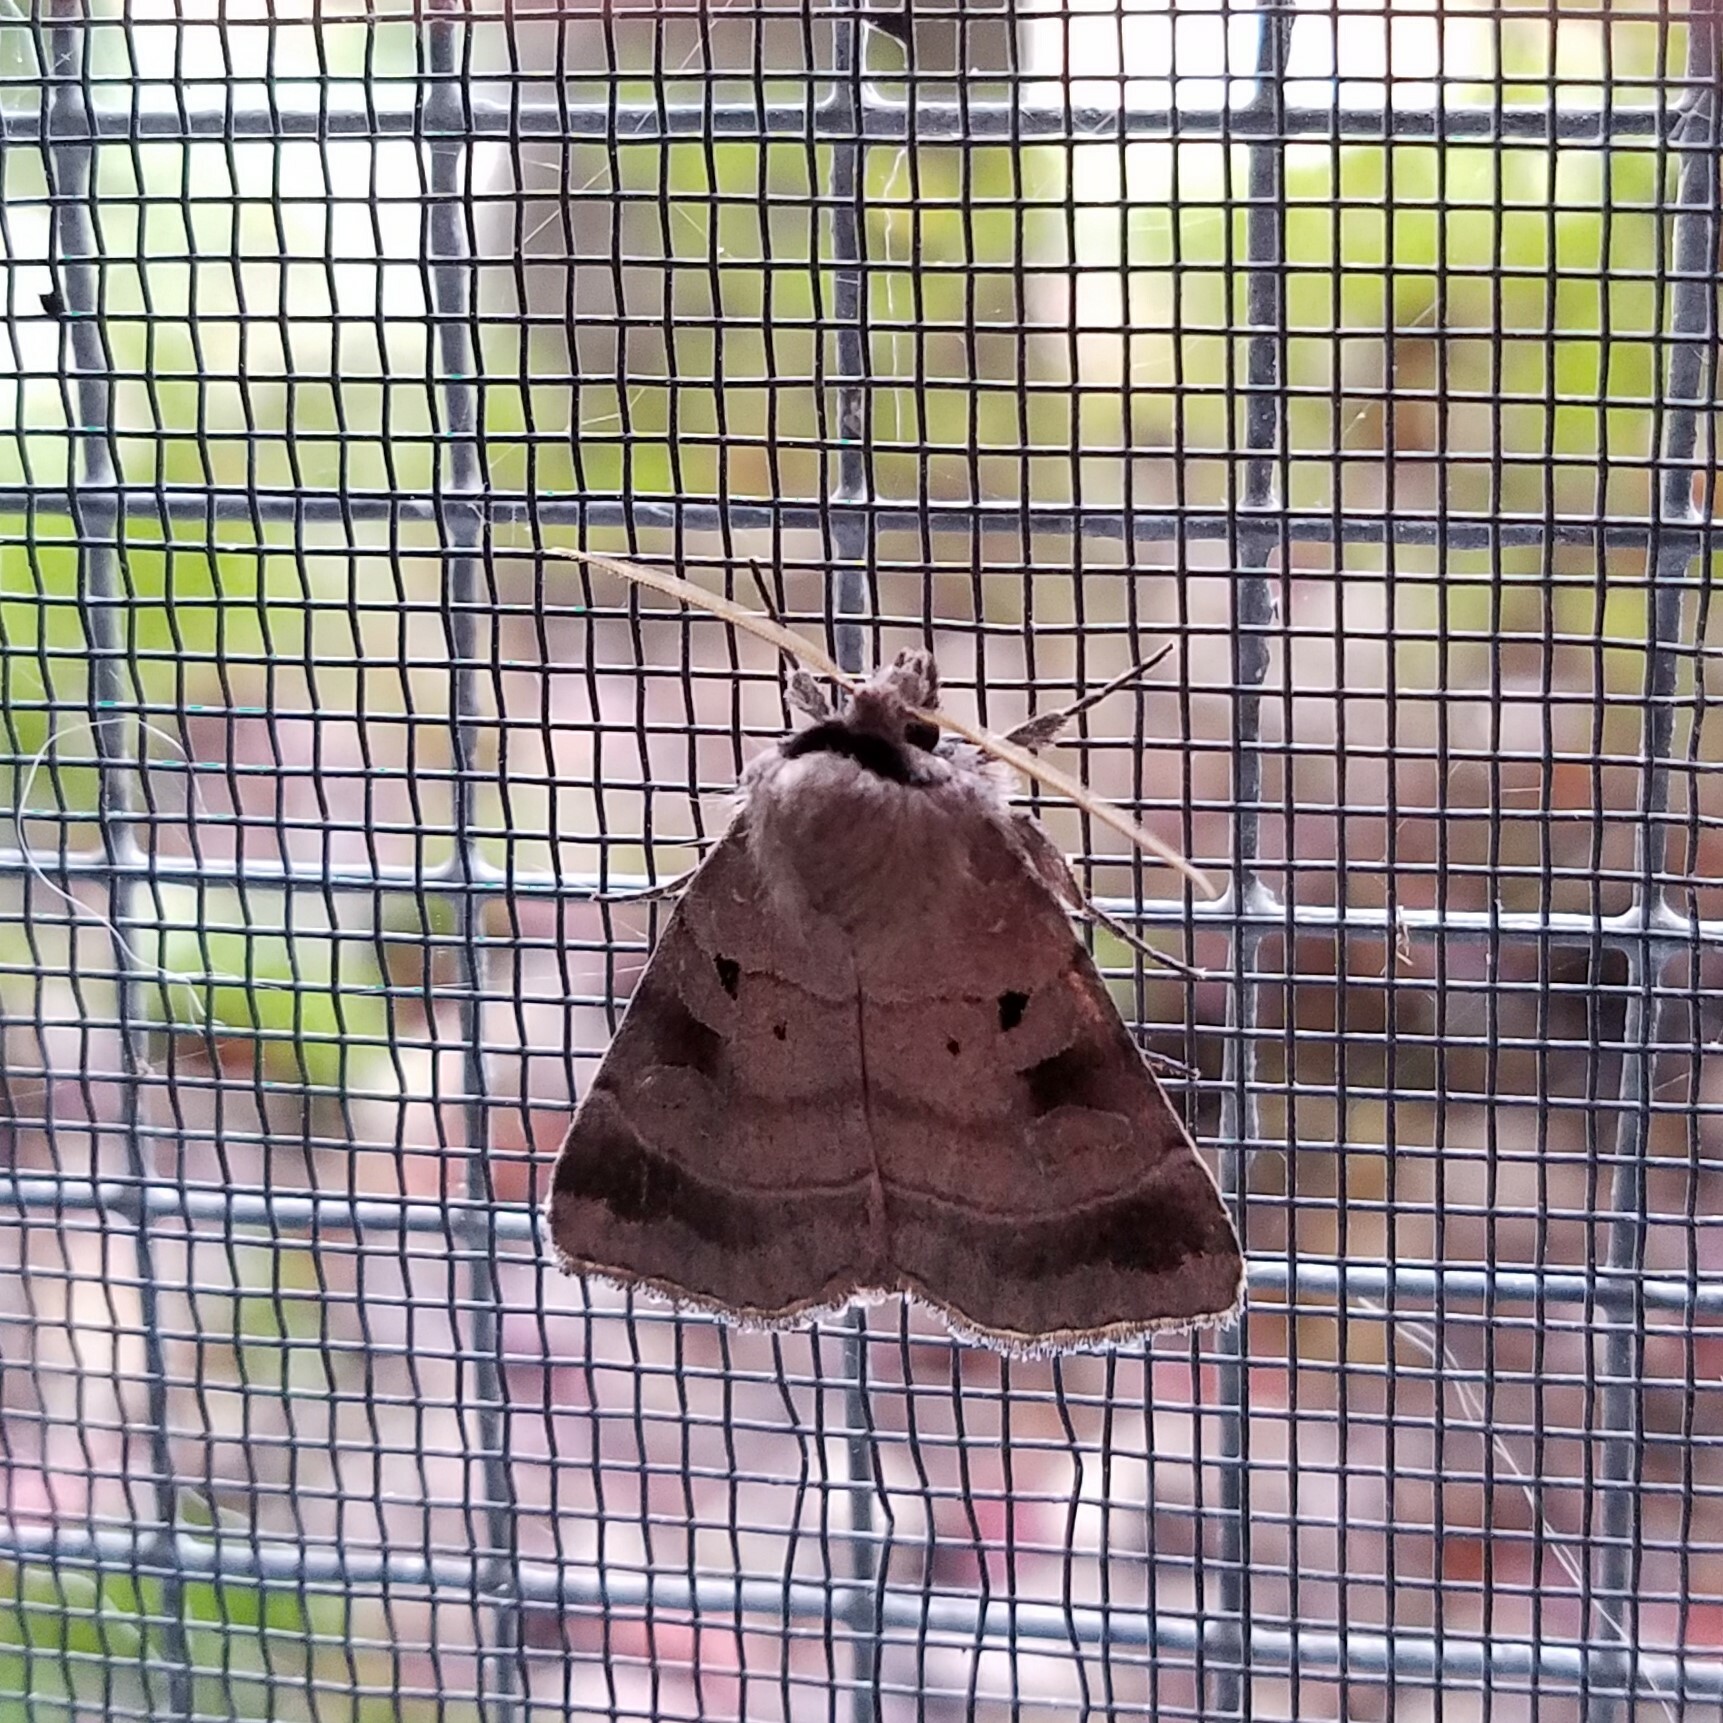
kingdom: Animalia
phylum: Arthropoda
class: Insecta
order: Lepidoptera
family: Noctuidae
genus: Agnorisma
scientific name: Agnorisma badinodis
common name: Pale-banded dart
